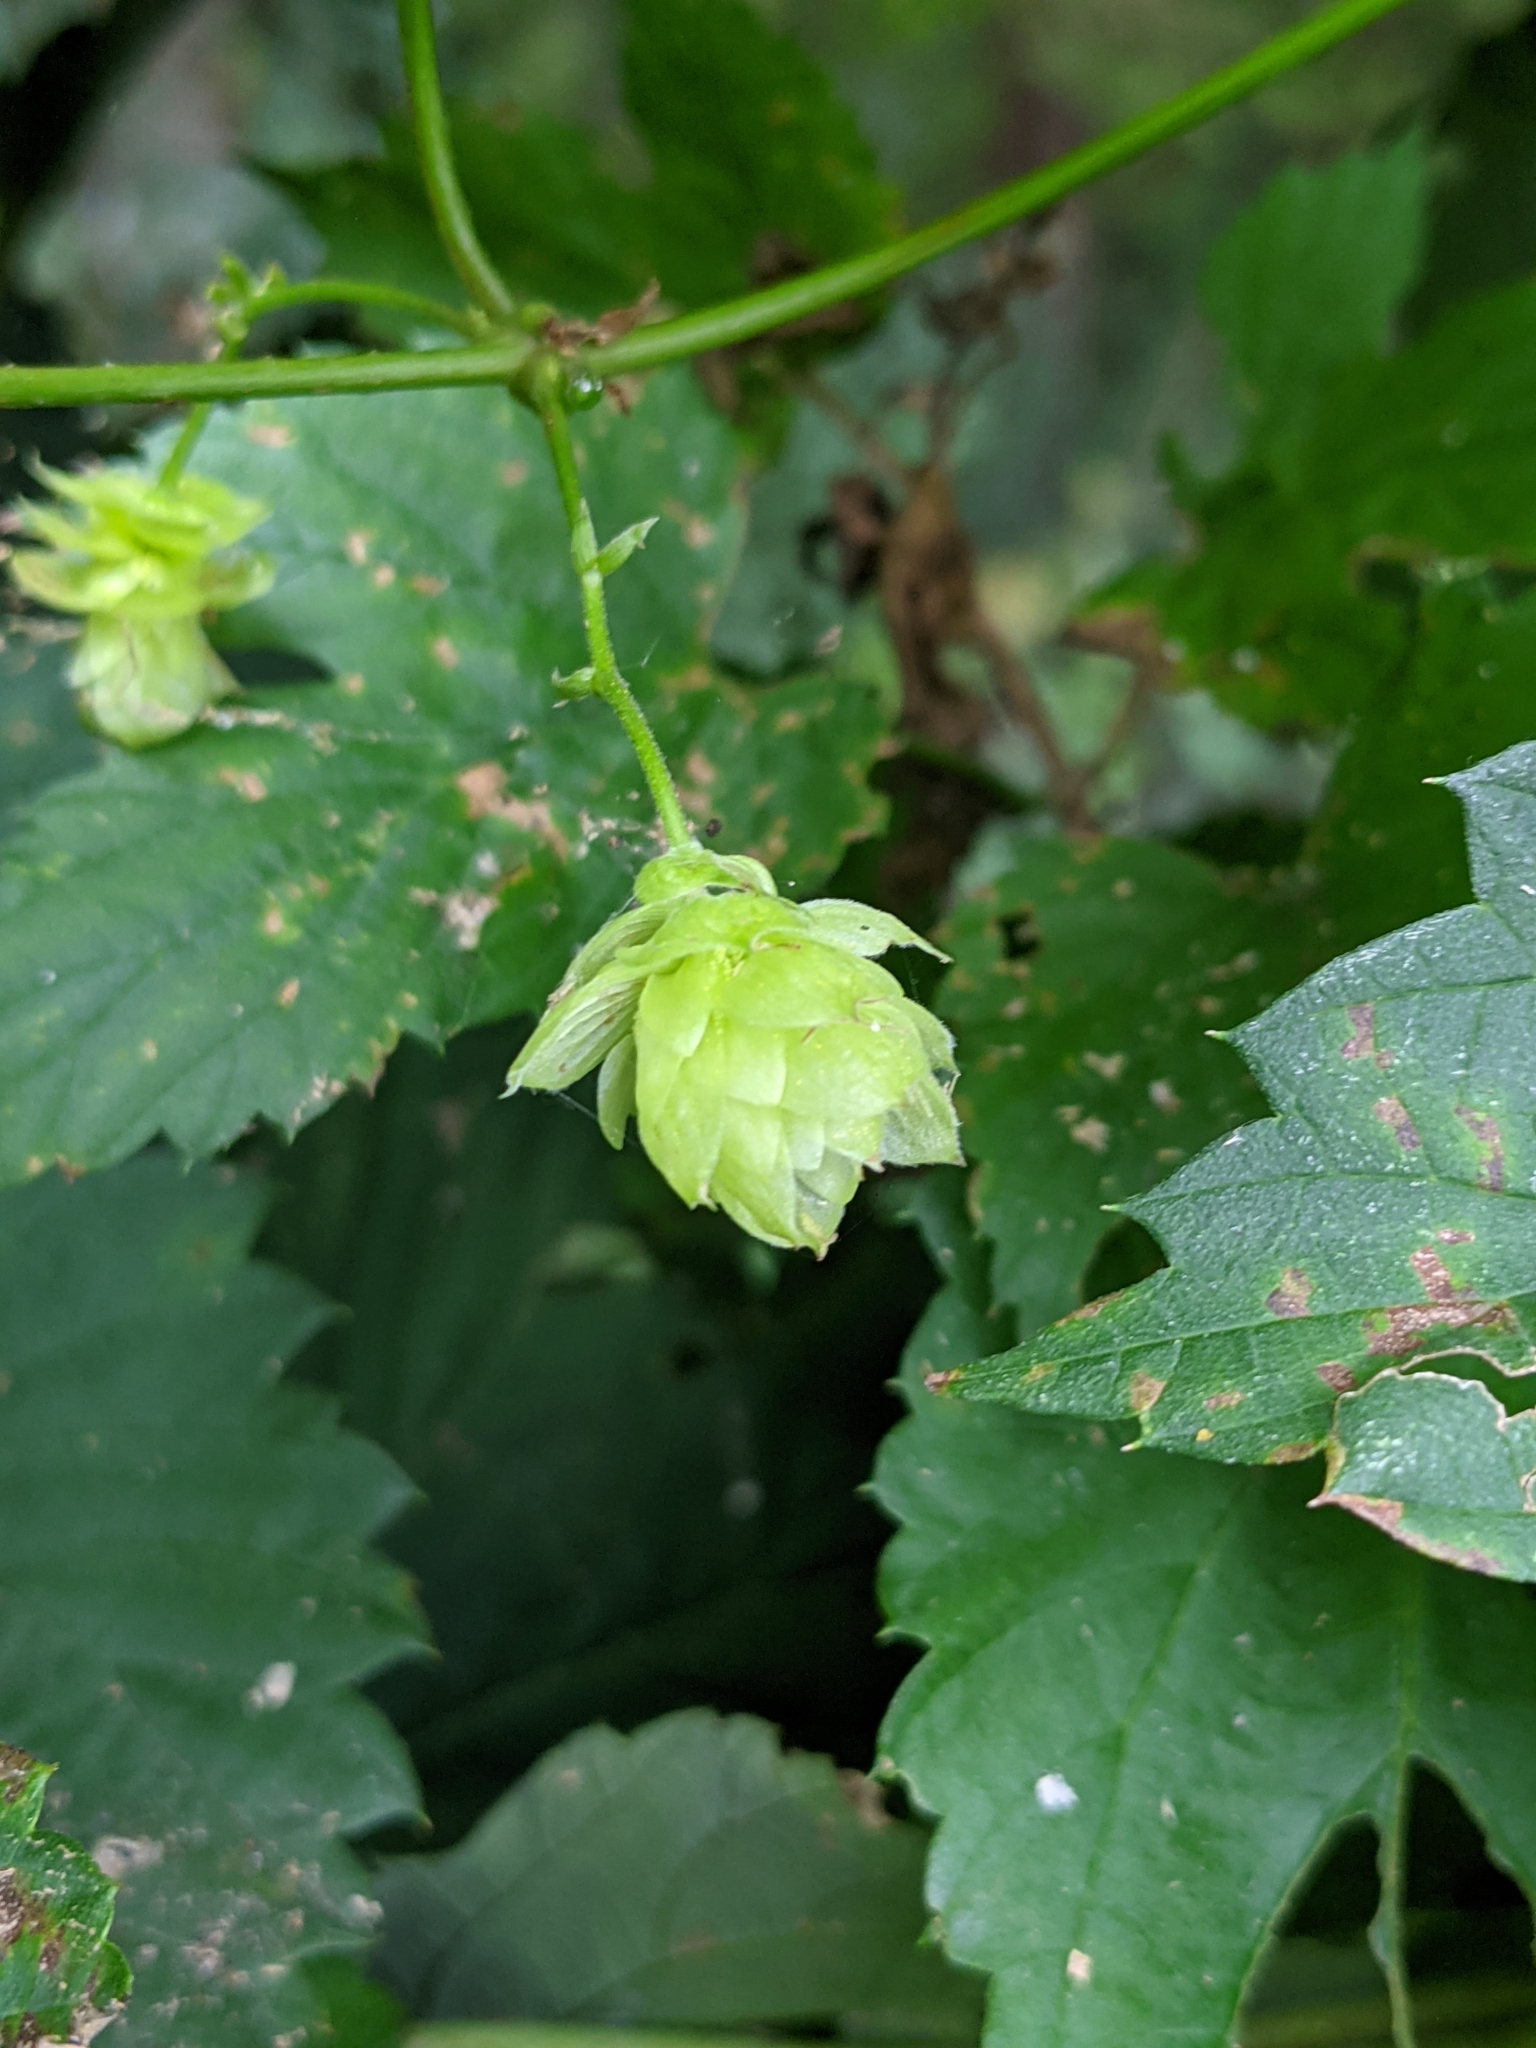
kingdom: Plantae
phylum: Tracheophyta
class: Magnoliopsida
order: Rosales
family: Cannabaceae
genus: Humulus
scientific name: Humulus lupulus
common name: Hop
